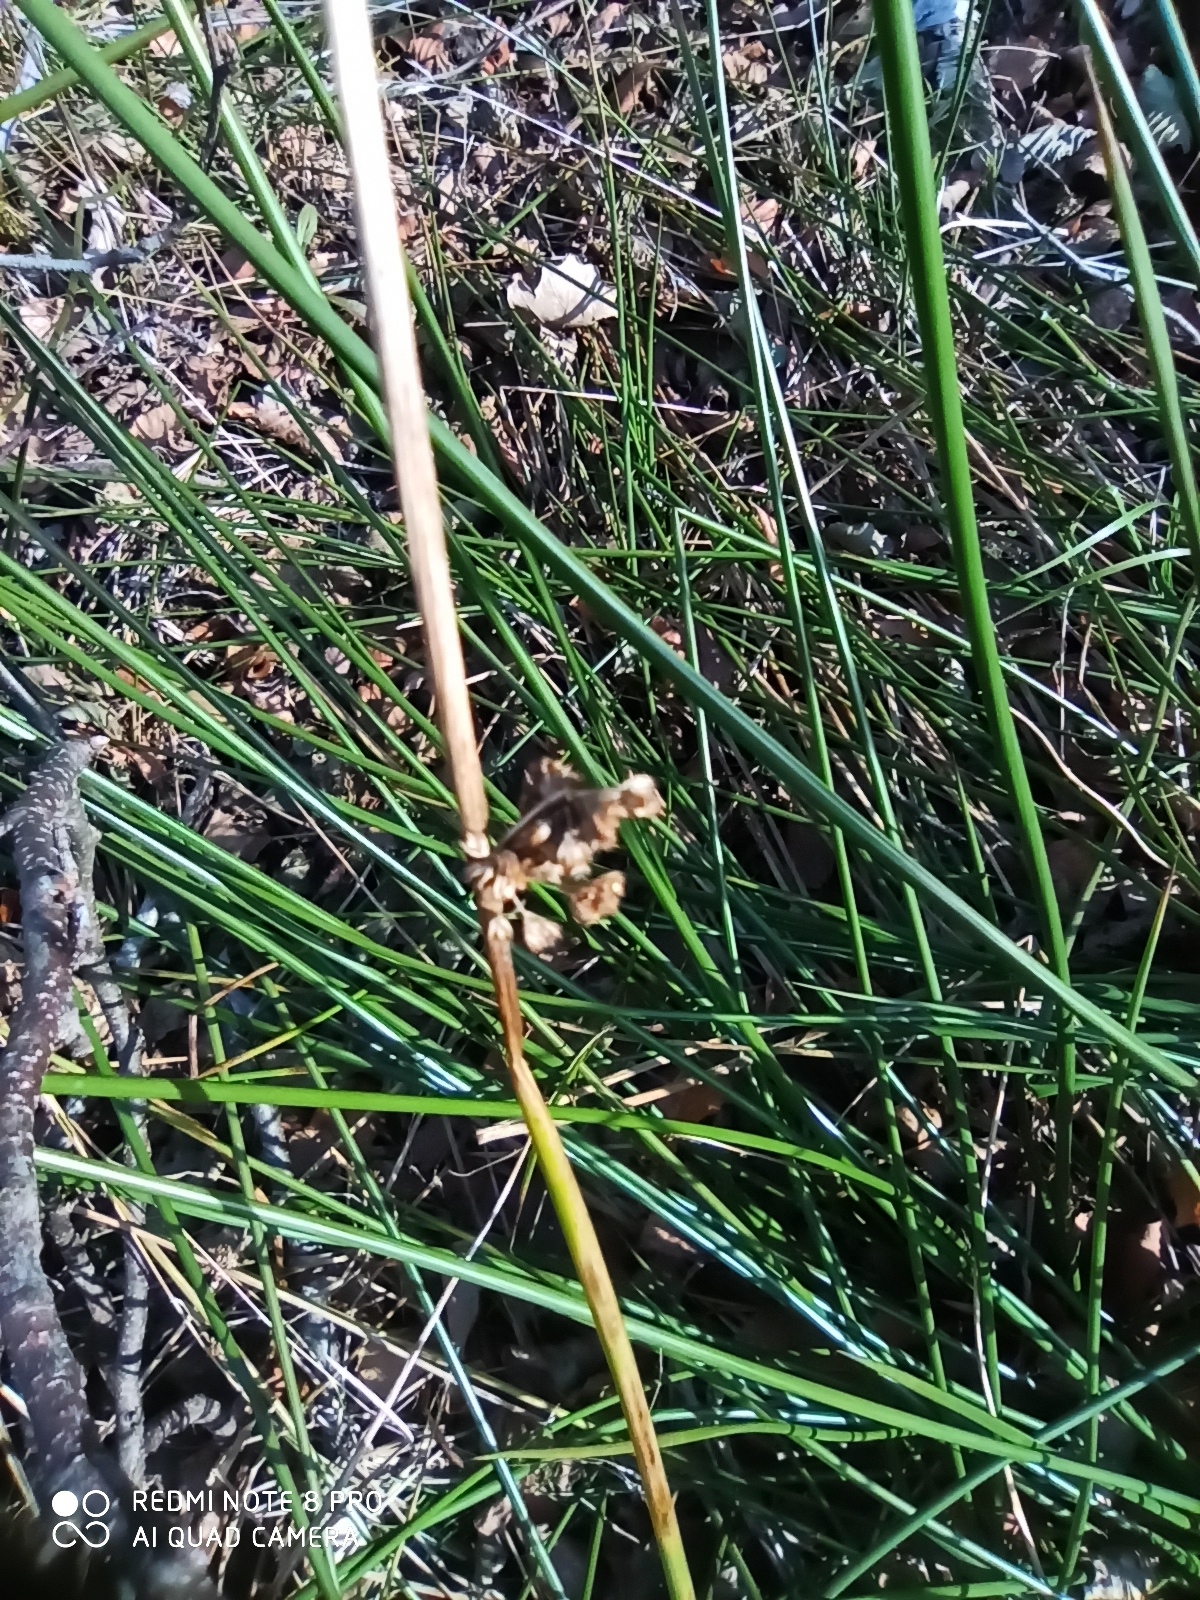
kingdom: Plantae
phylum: Tracheophyta
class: Liliopsida
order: Poales
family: Juncaceae
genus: Juncus
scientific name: Juncus effusus
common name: Soft rush
